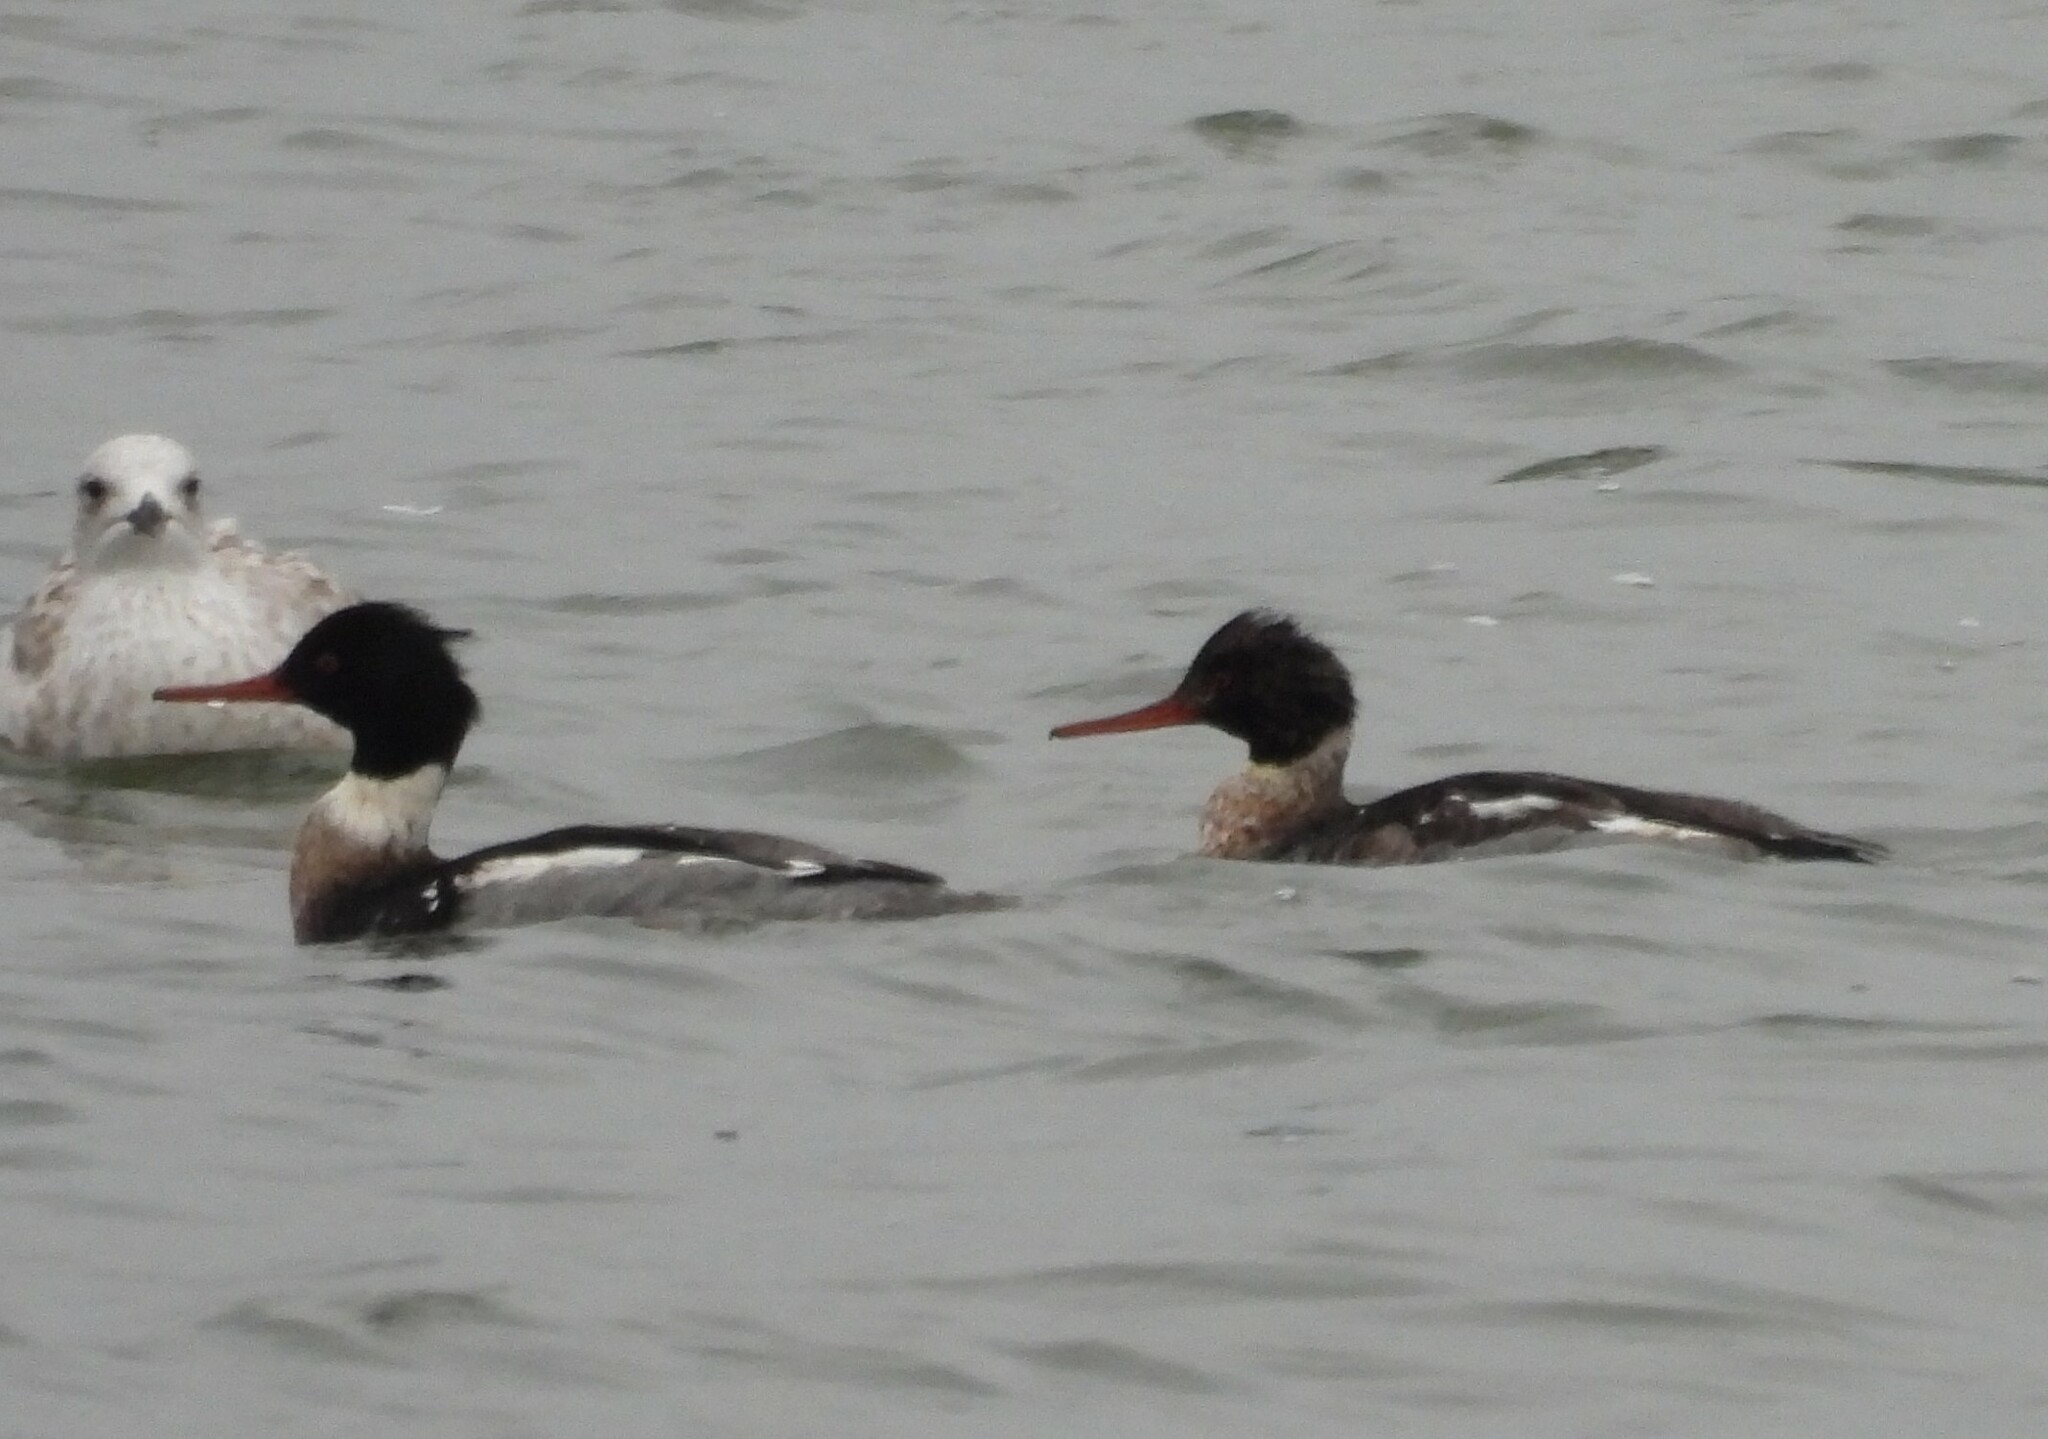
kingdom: Animalia
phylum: Chordata
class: Aves
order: Anseriformes
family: Anatidae
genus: Mergus
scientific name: Mergus serrator
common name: Red-breasted merganser
